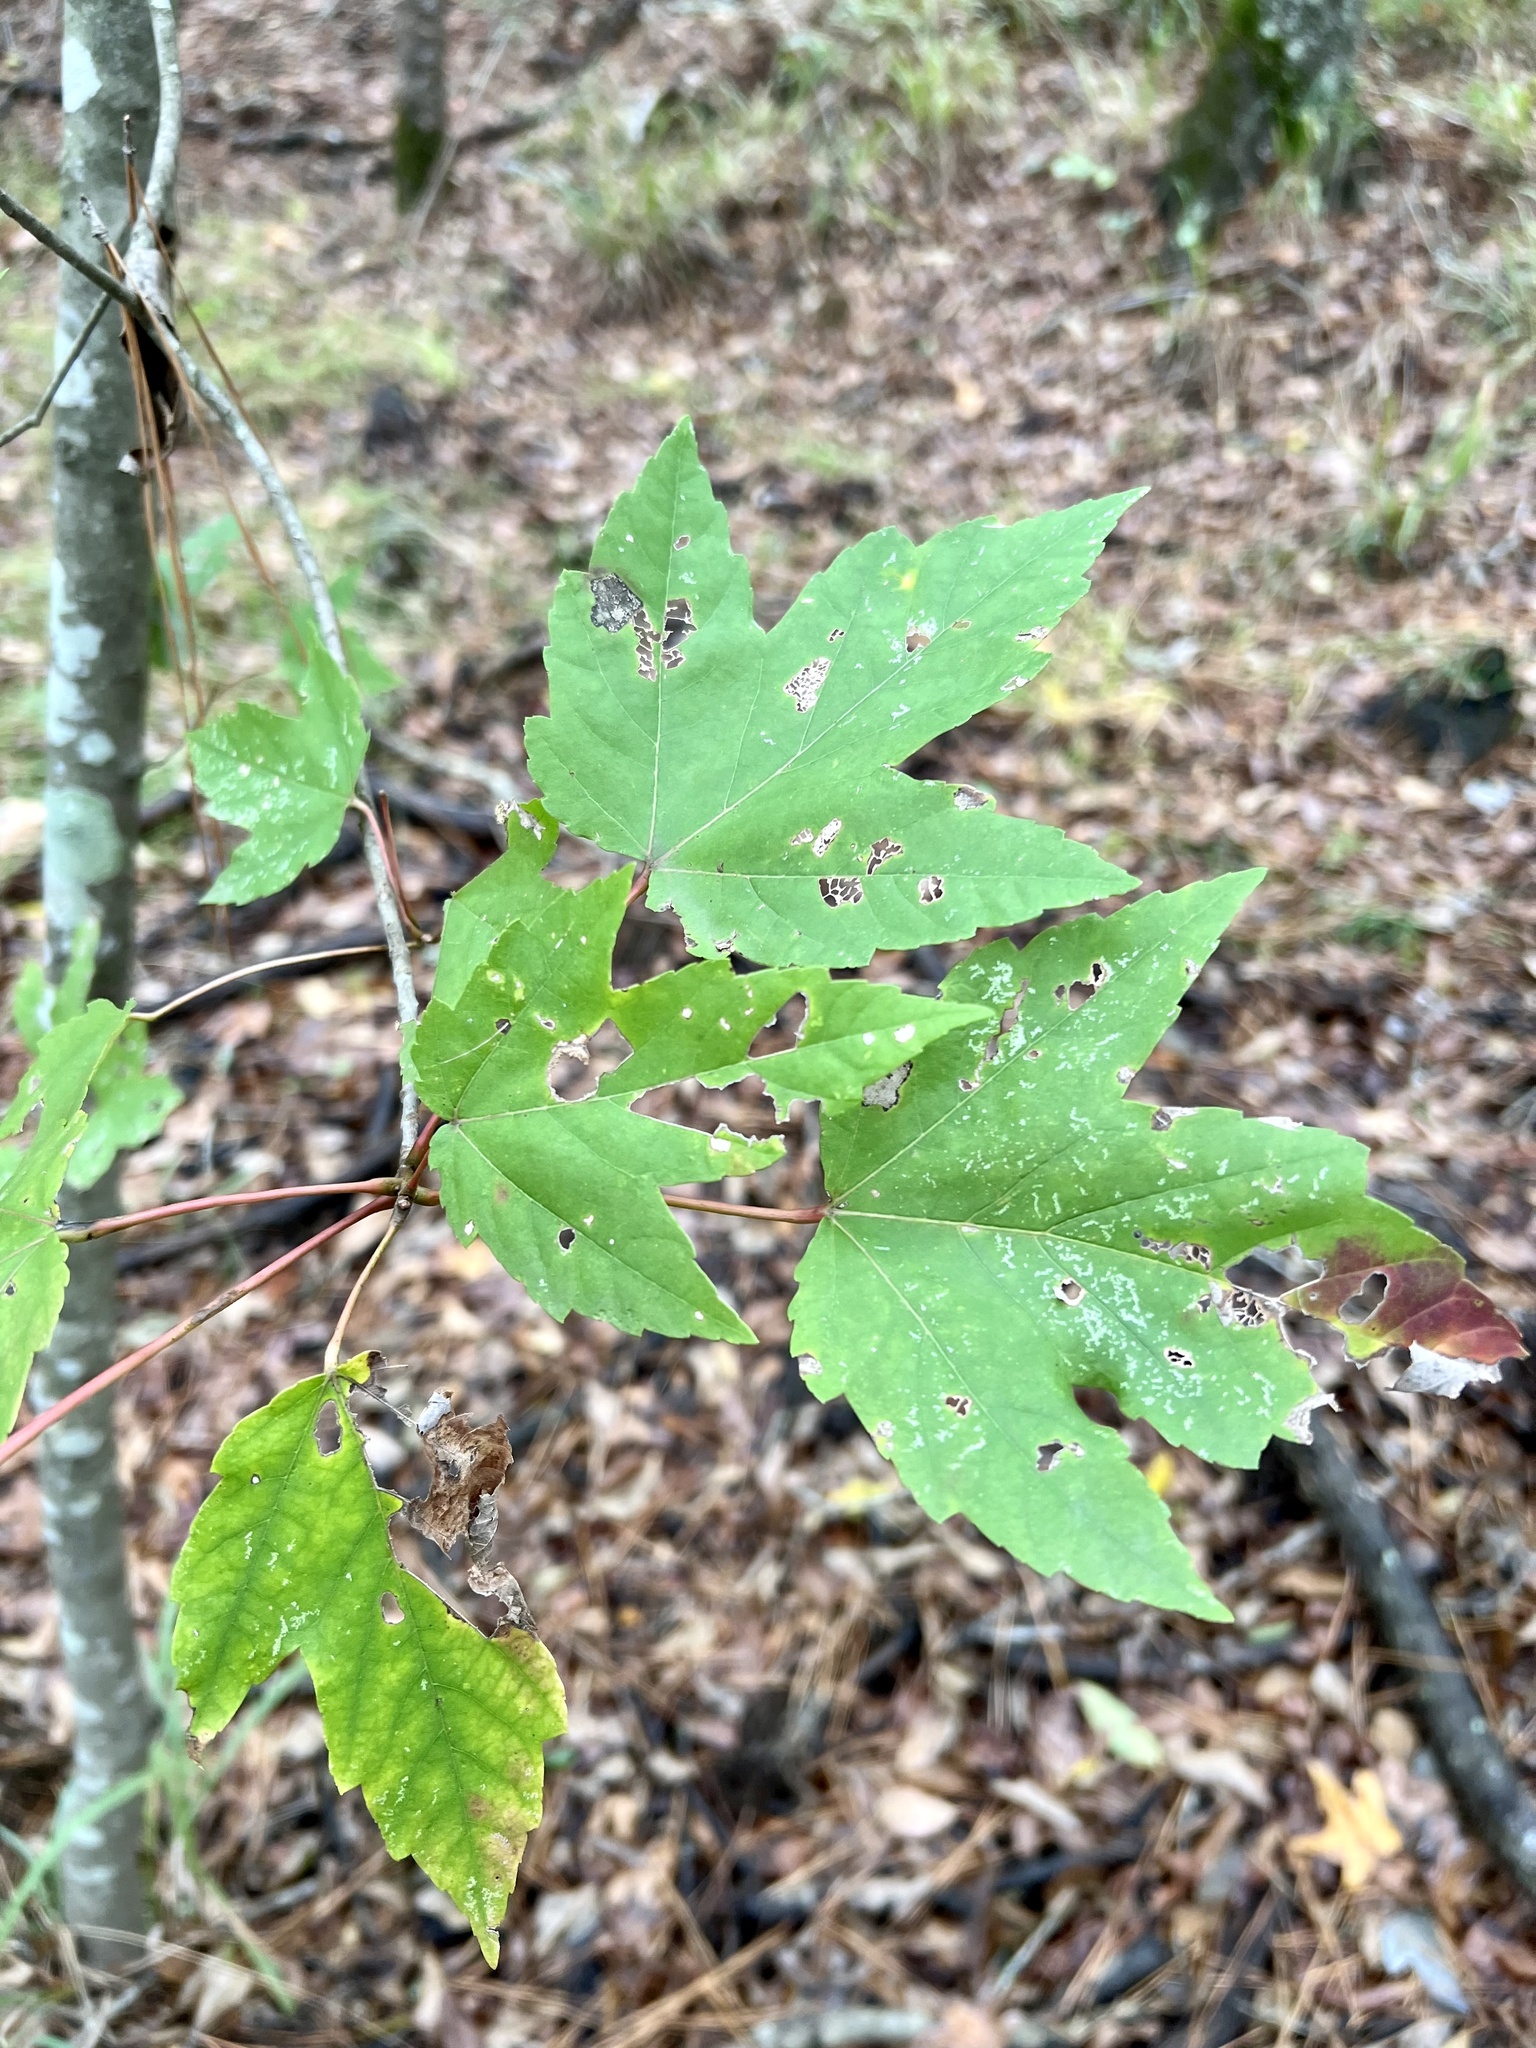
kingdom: Plantae
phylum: Tracheophyta
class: Magnoliopsida
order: Sapindales
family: Sapindaceae
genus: Acer
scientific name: Acer rubrum
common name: Red maple
